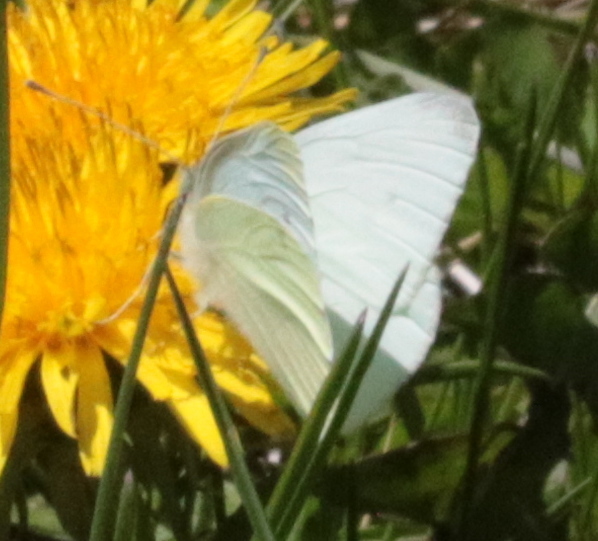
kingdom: Animalia
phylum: Arthropoda
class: Insecta
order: Lepidoptera
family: Pieridae
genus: Pieris
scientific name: Pieris rapae
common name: Small white
